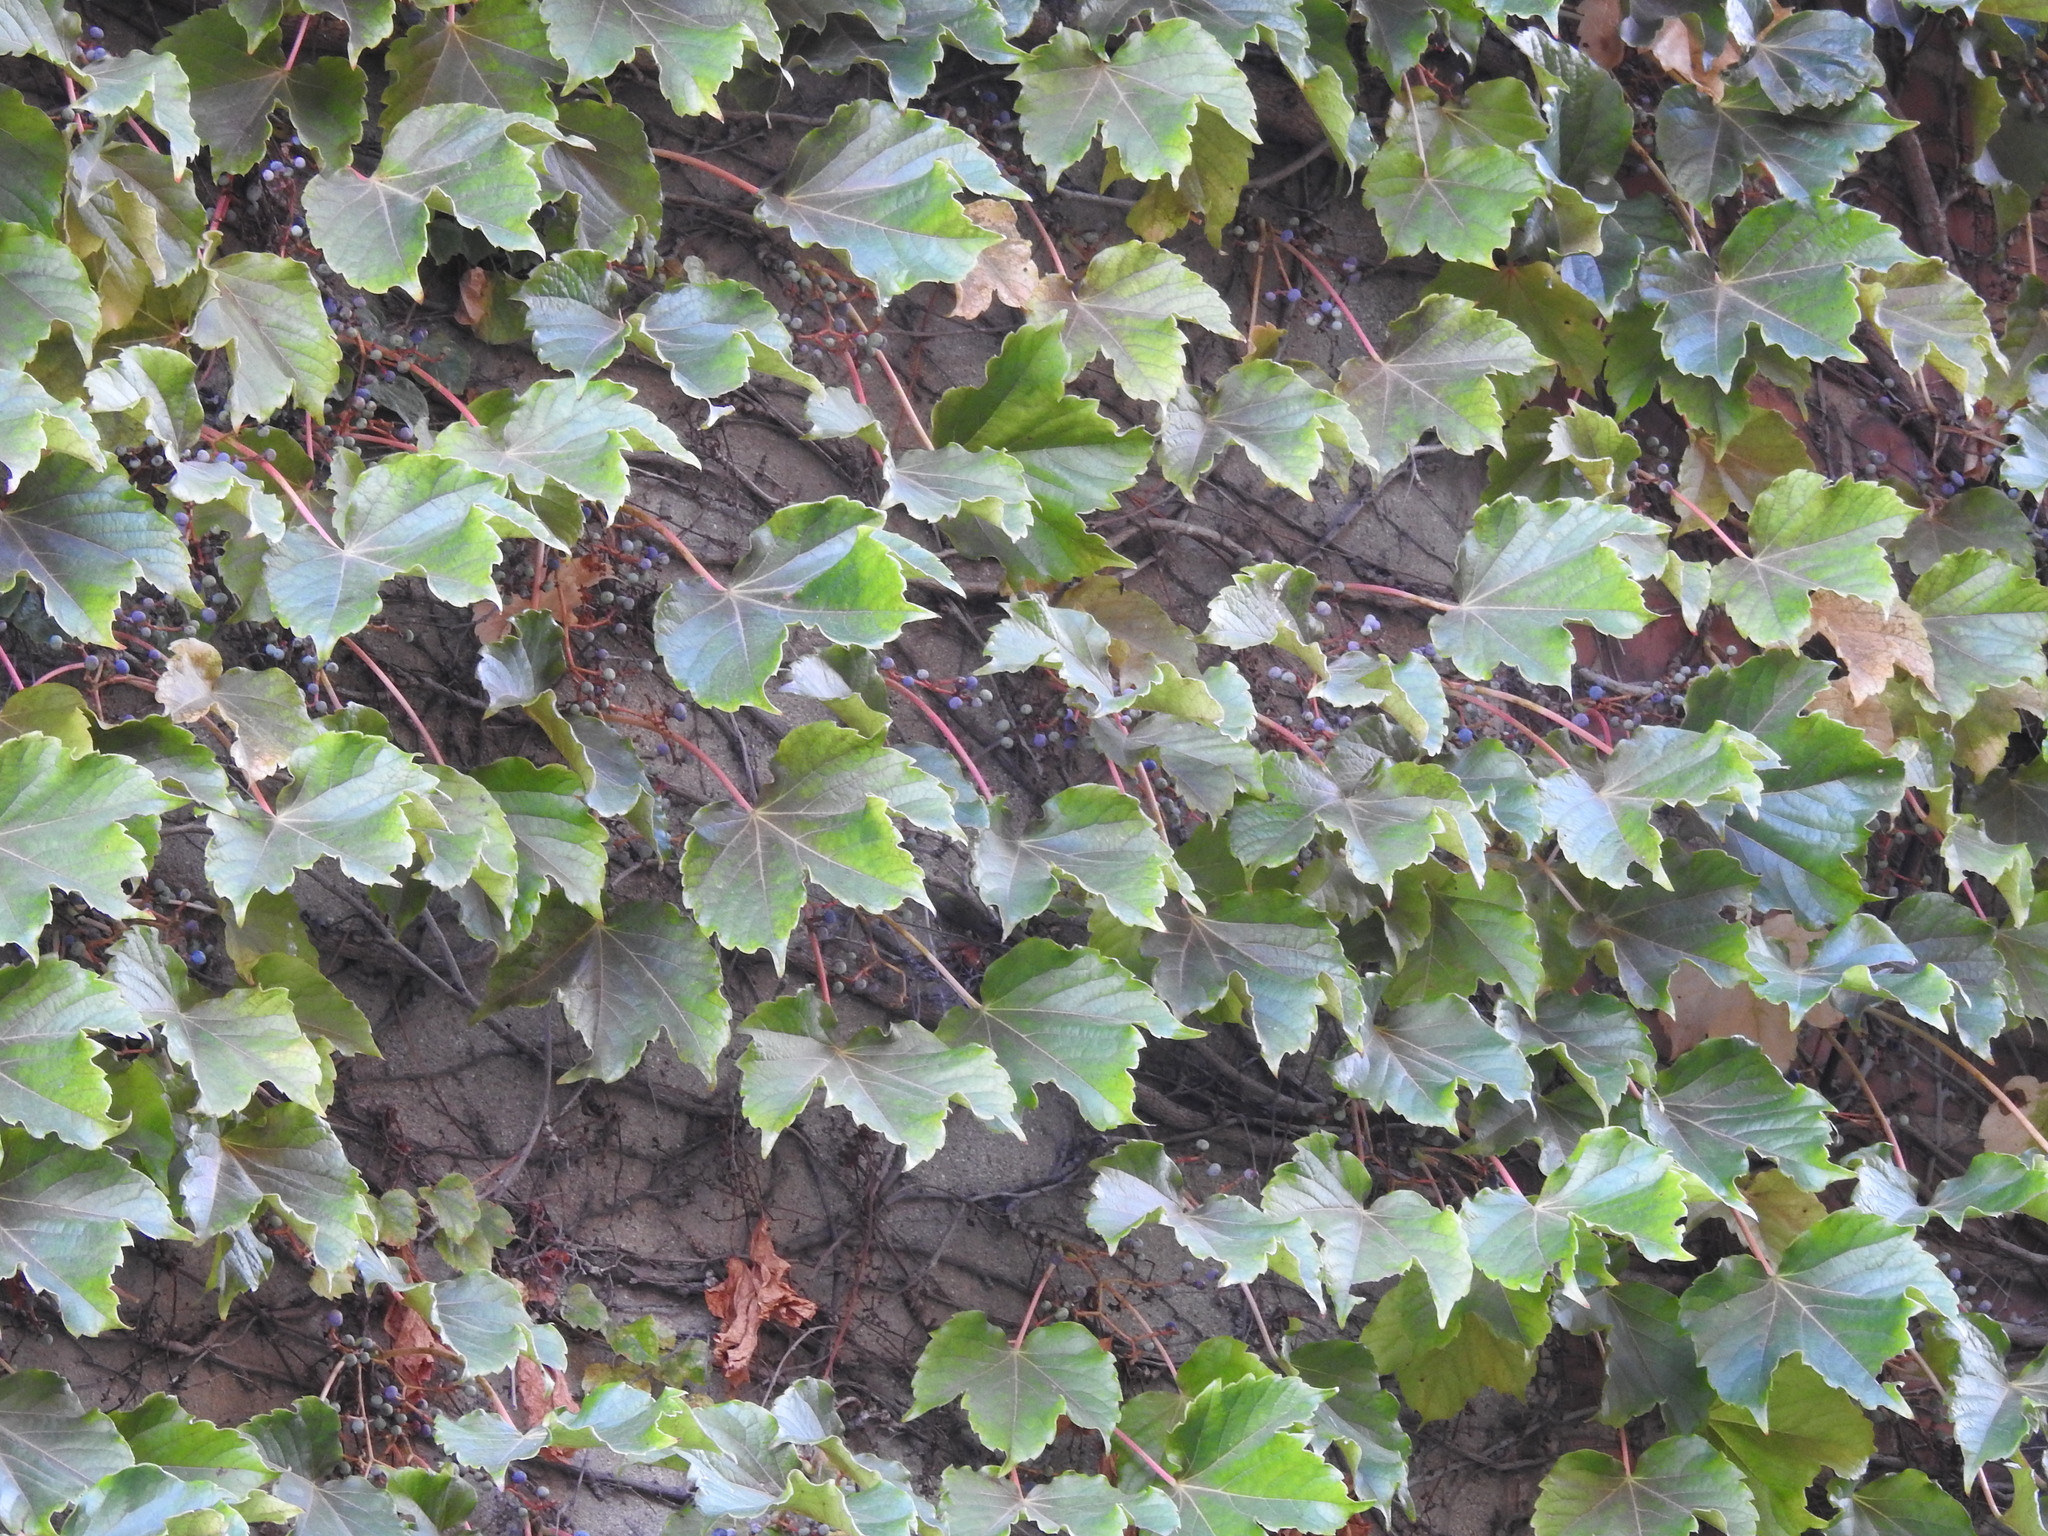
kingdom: Plantae
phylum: Tracheophyta
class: Magnoliopsida
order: Vitales
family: Vitaceae
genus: Parthenocissus
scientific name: Parthenocissus tricuspidata
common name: Boston ivy
